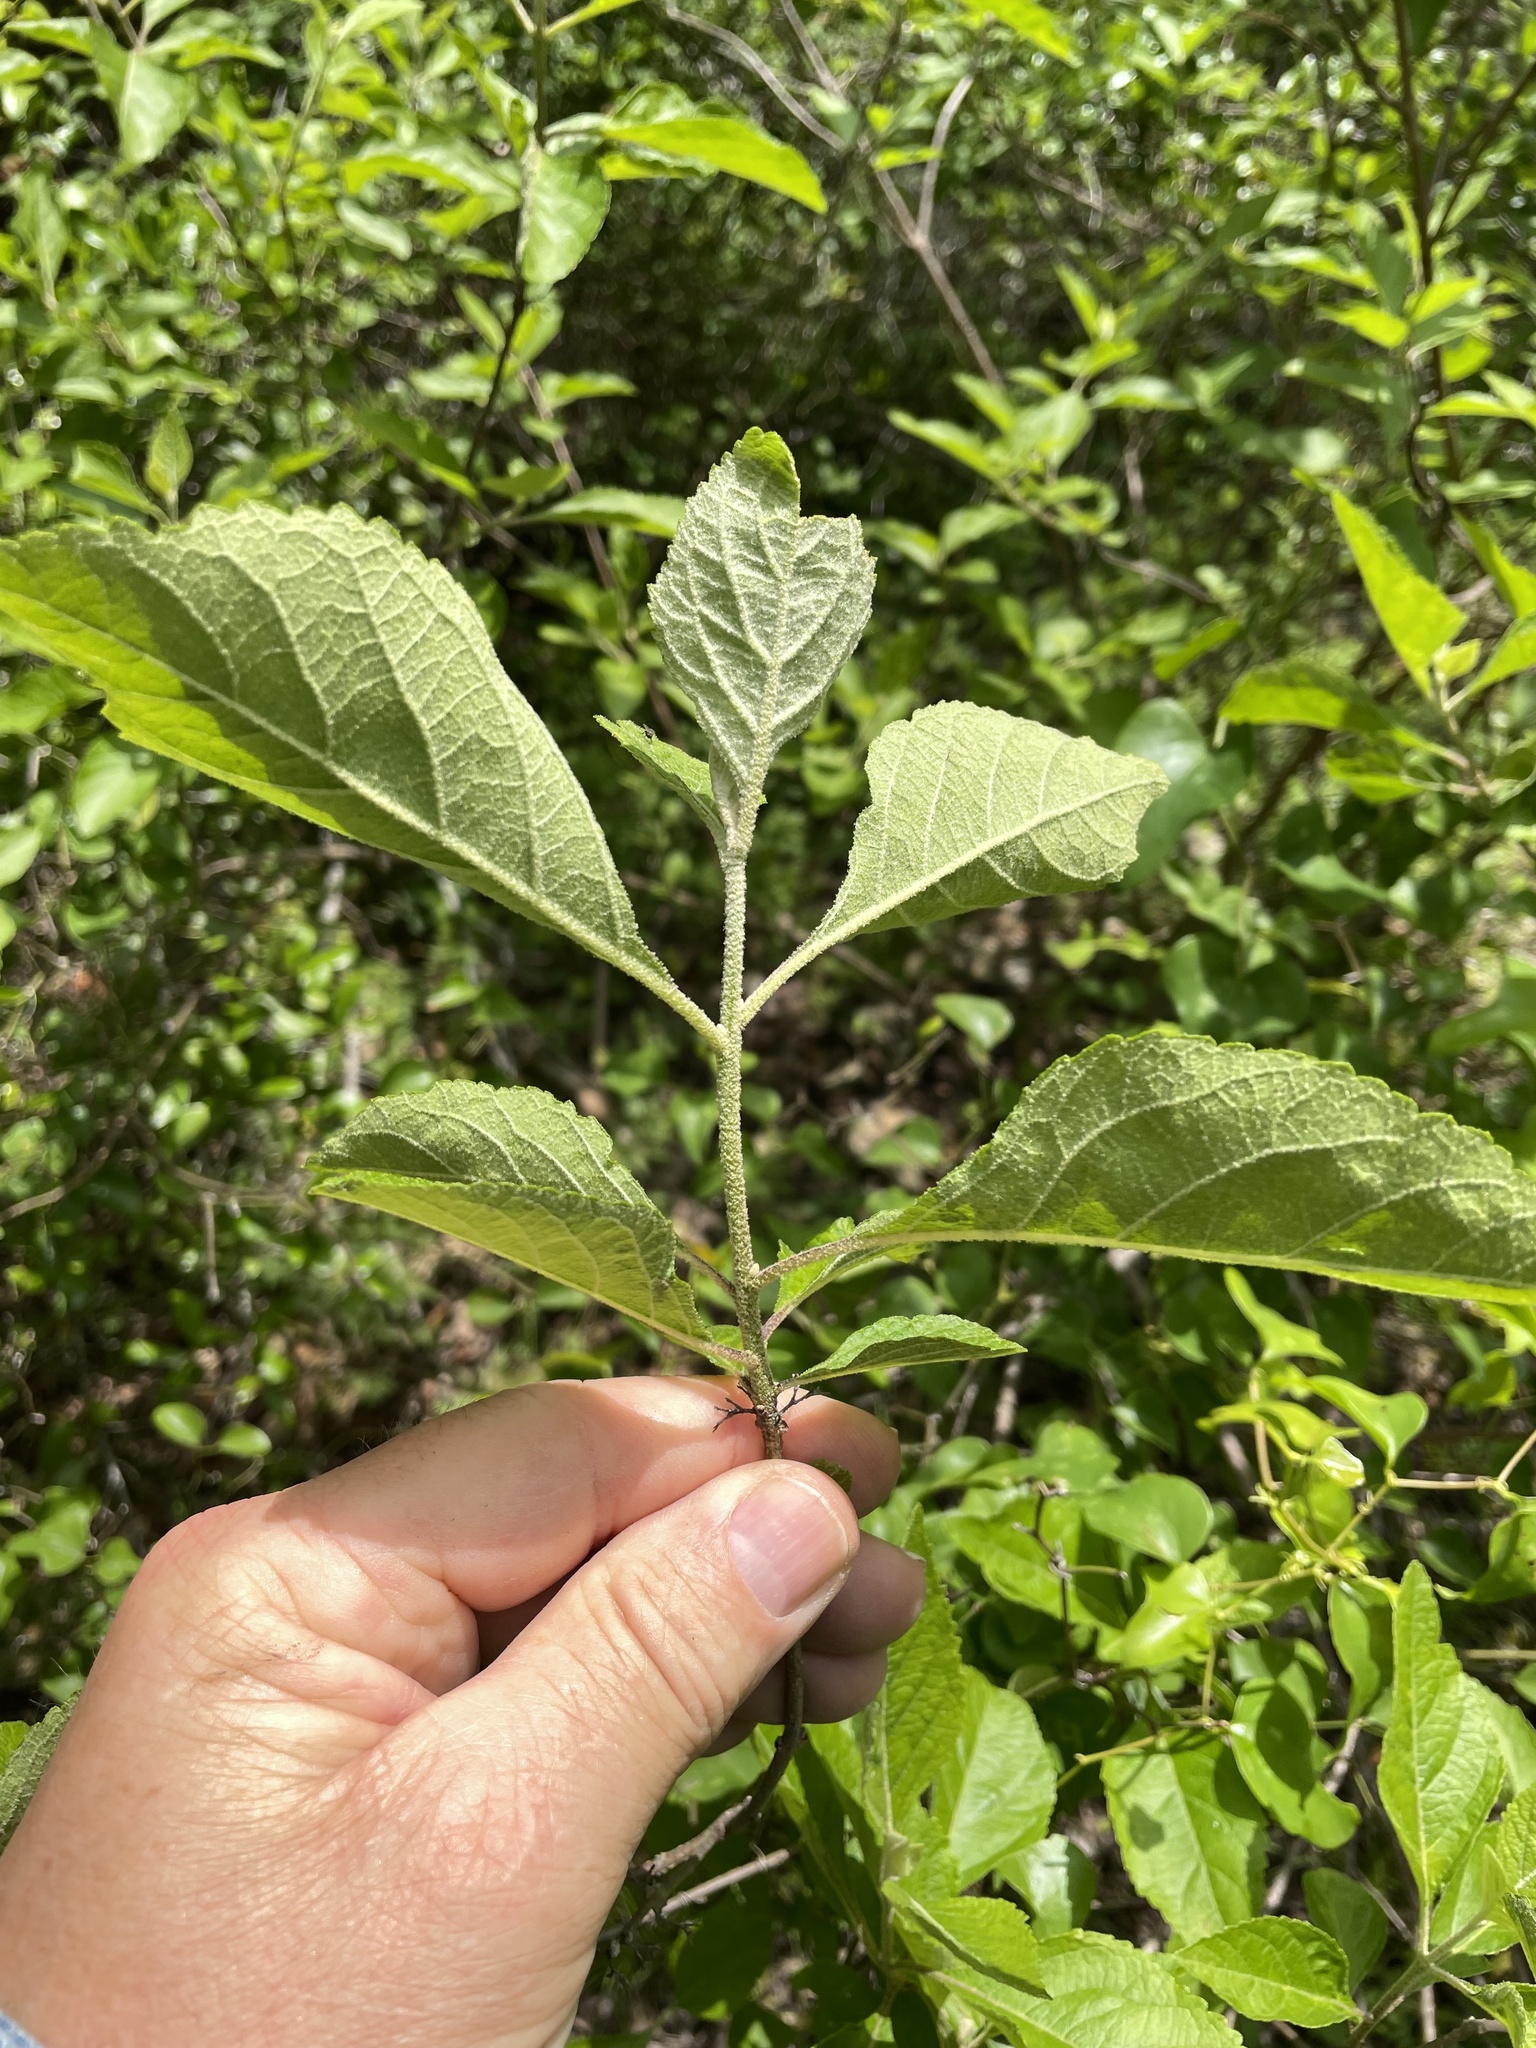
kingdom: Plantae
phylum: Tracheophyta
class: Magnoliopsida
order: Lamiales
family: Lamiaceae
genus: Callicarpa
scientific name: Callicarpa americana
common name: American beautyberry
